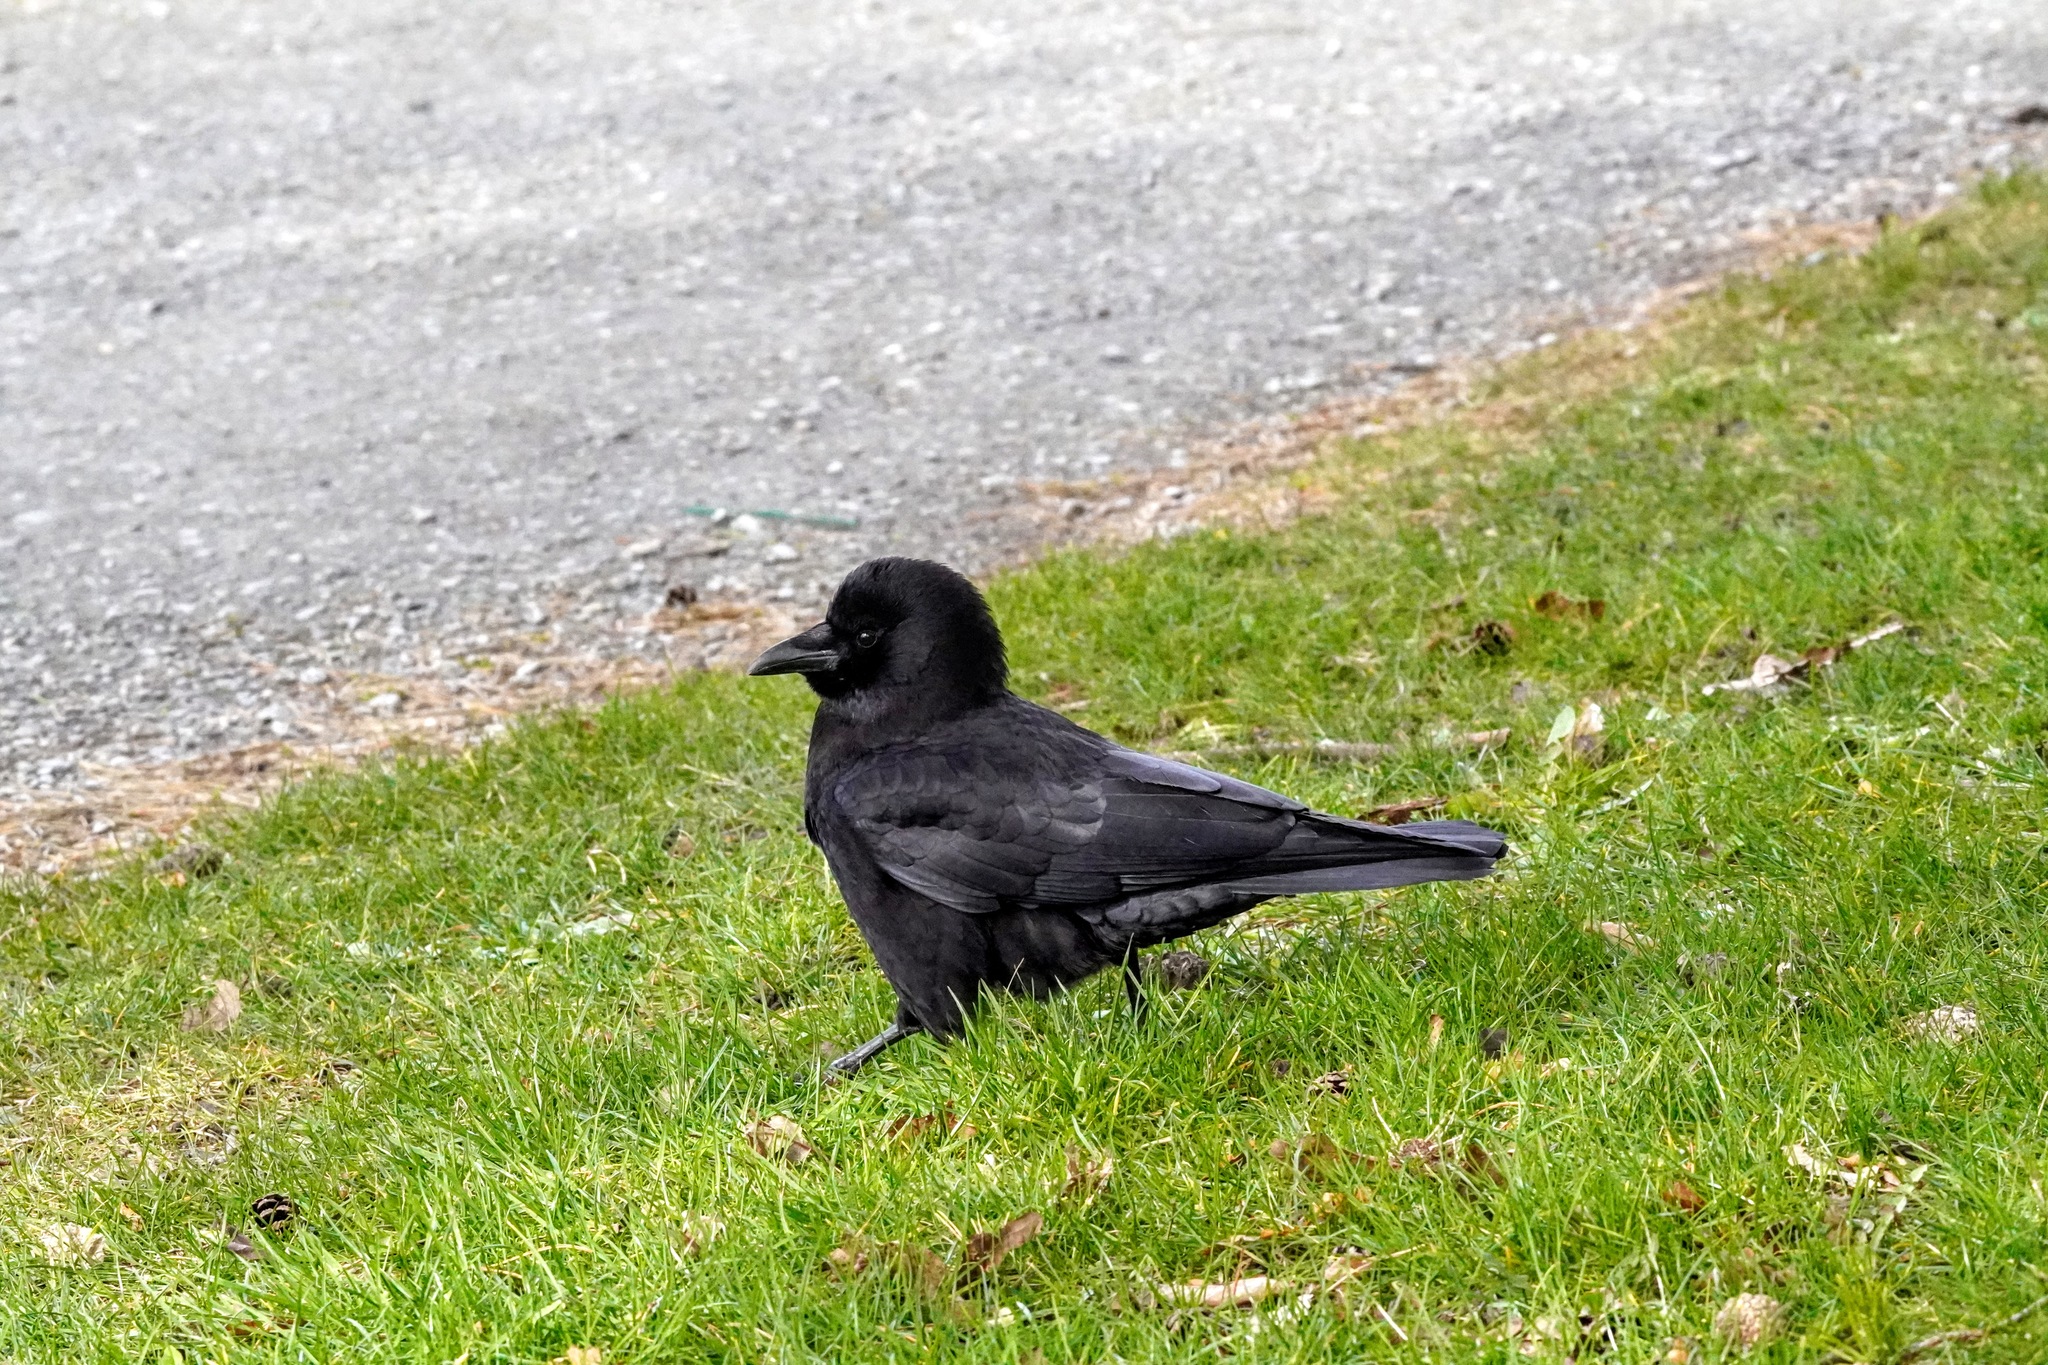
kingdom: Animalia
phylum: Chordata
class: Aves
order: Passeriformes
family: Corvidae
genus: Corvus
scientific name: Corvus brachyrhynchos
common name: American crow
